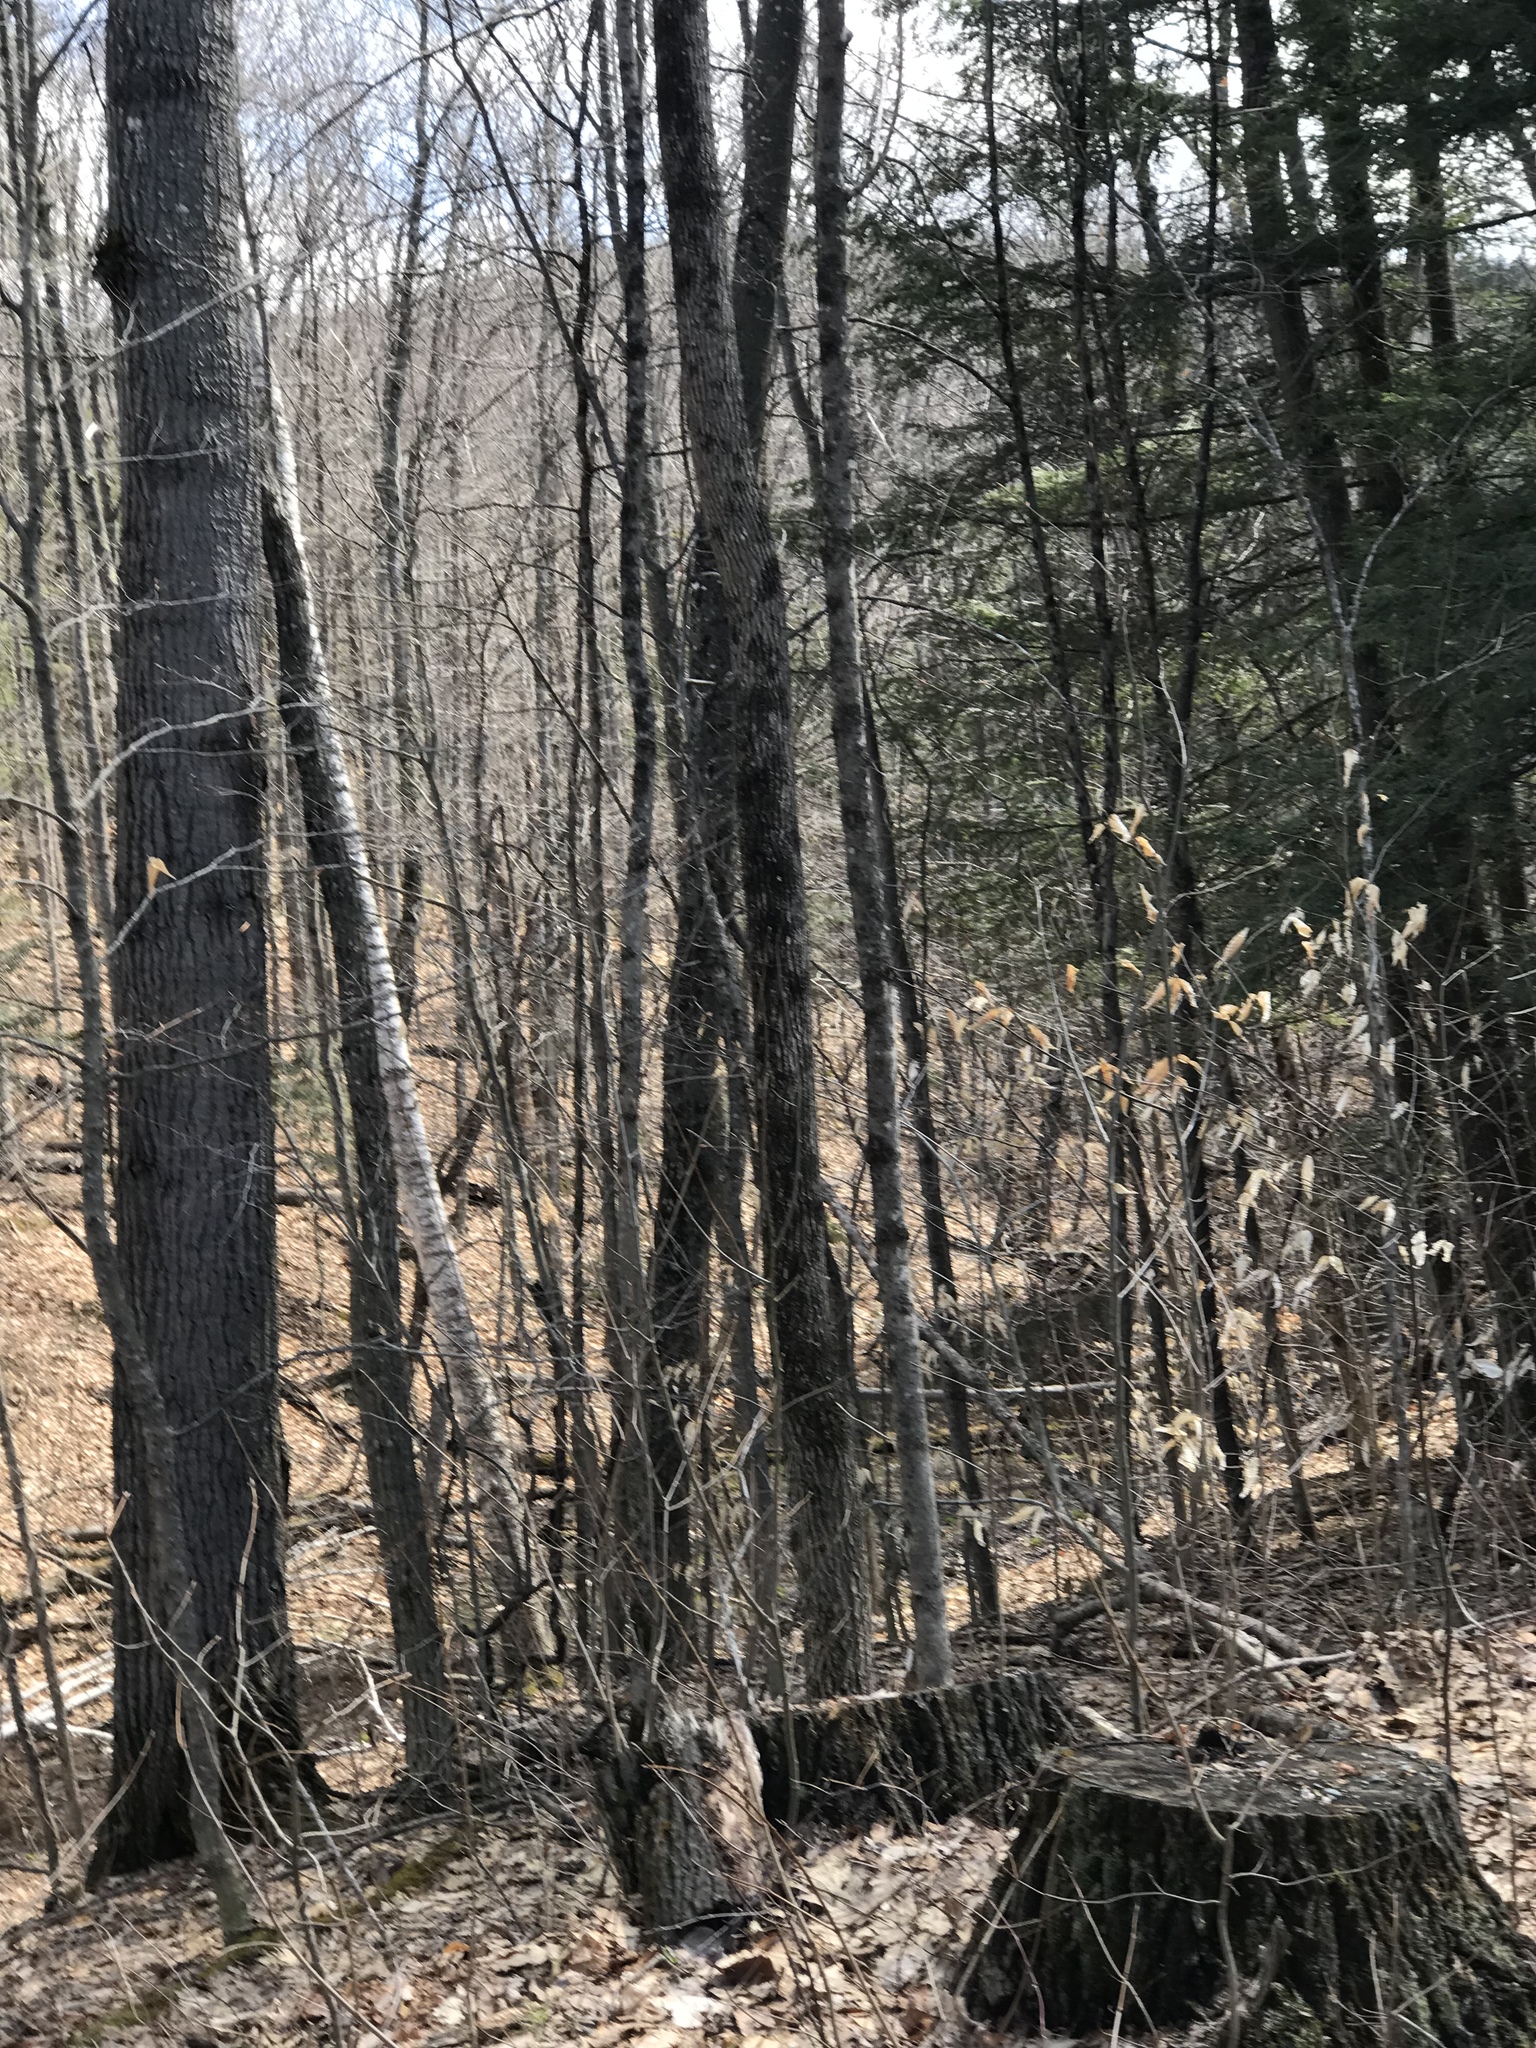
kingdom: Animalia
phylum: Chordata
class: Amphibia
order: Anura
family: Ranidae
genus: Lithobates
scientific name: Lithobates sylvaticus
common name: Wood frog
